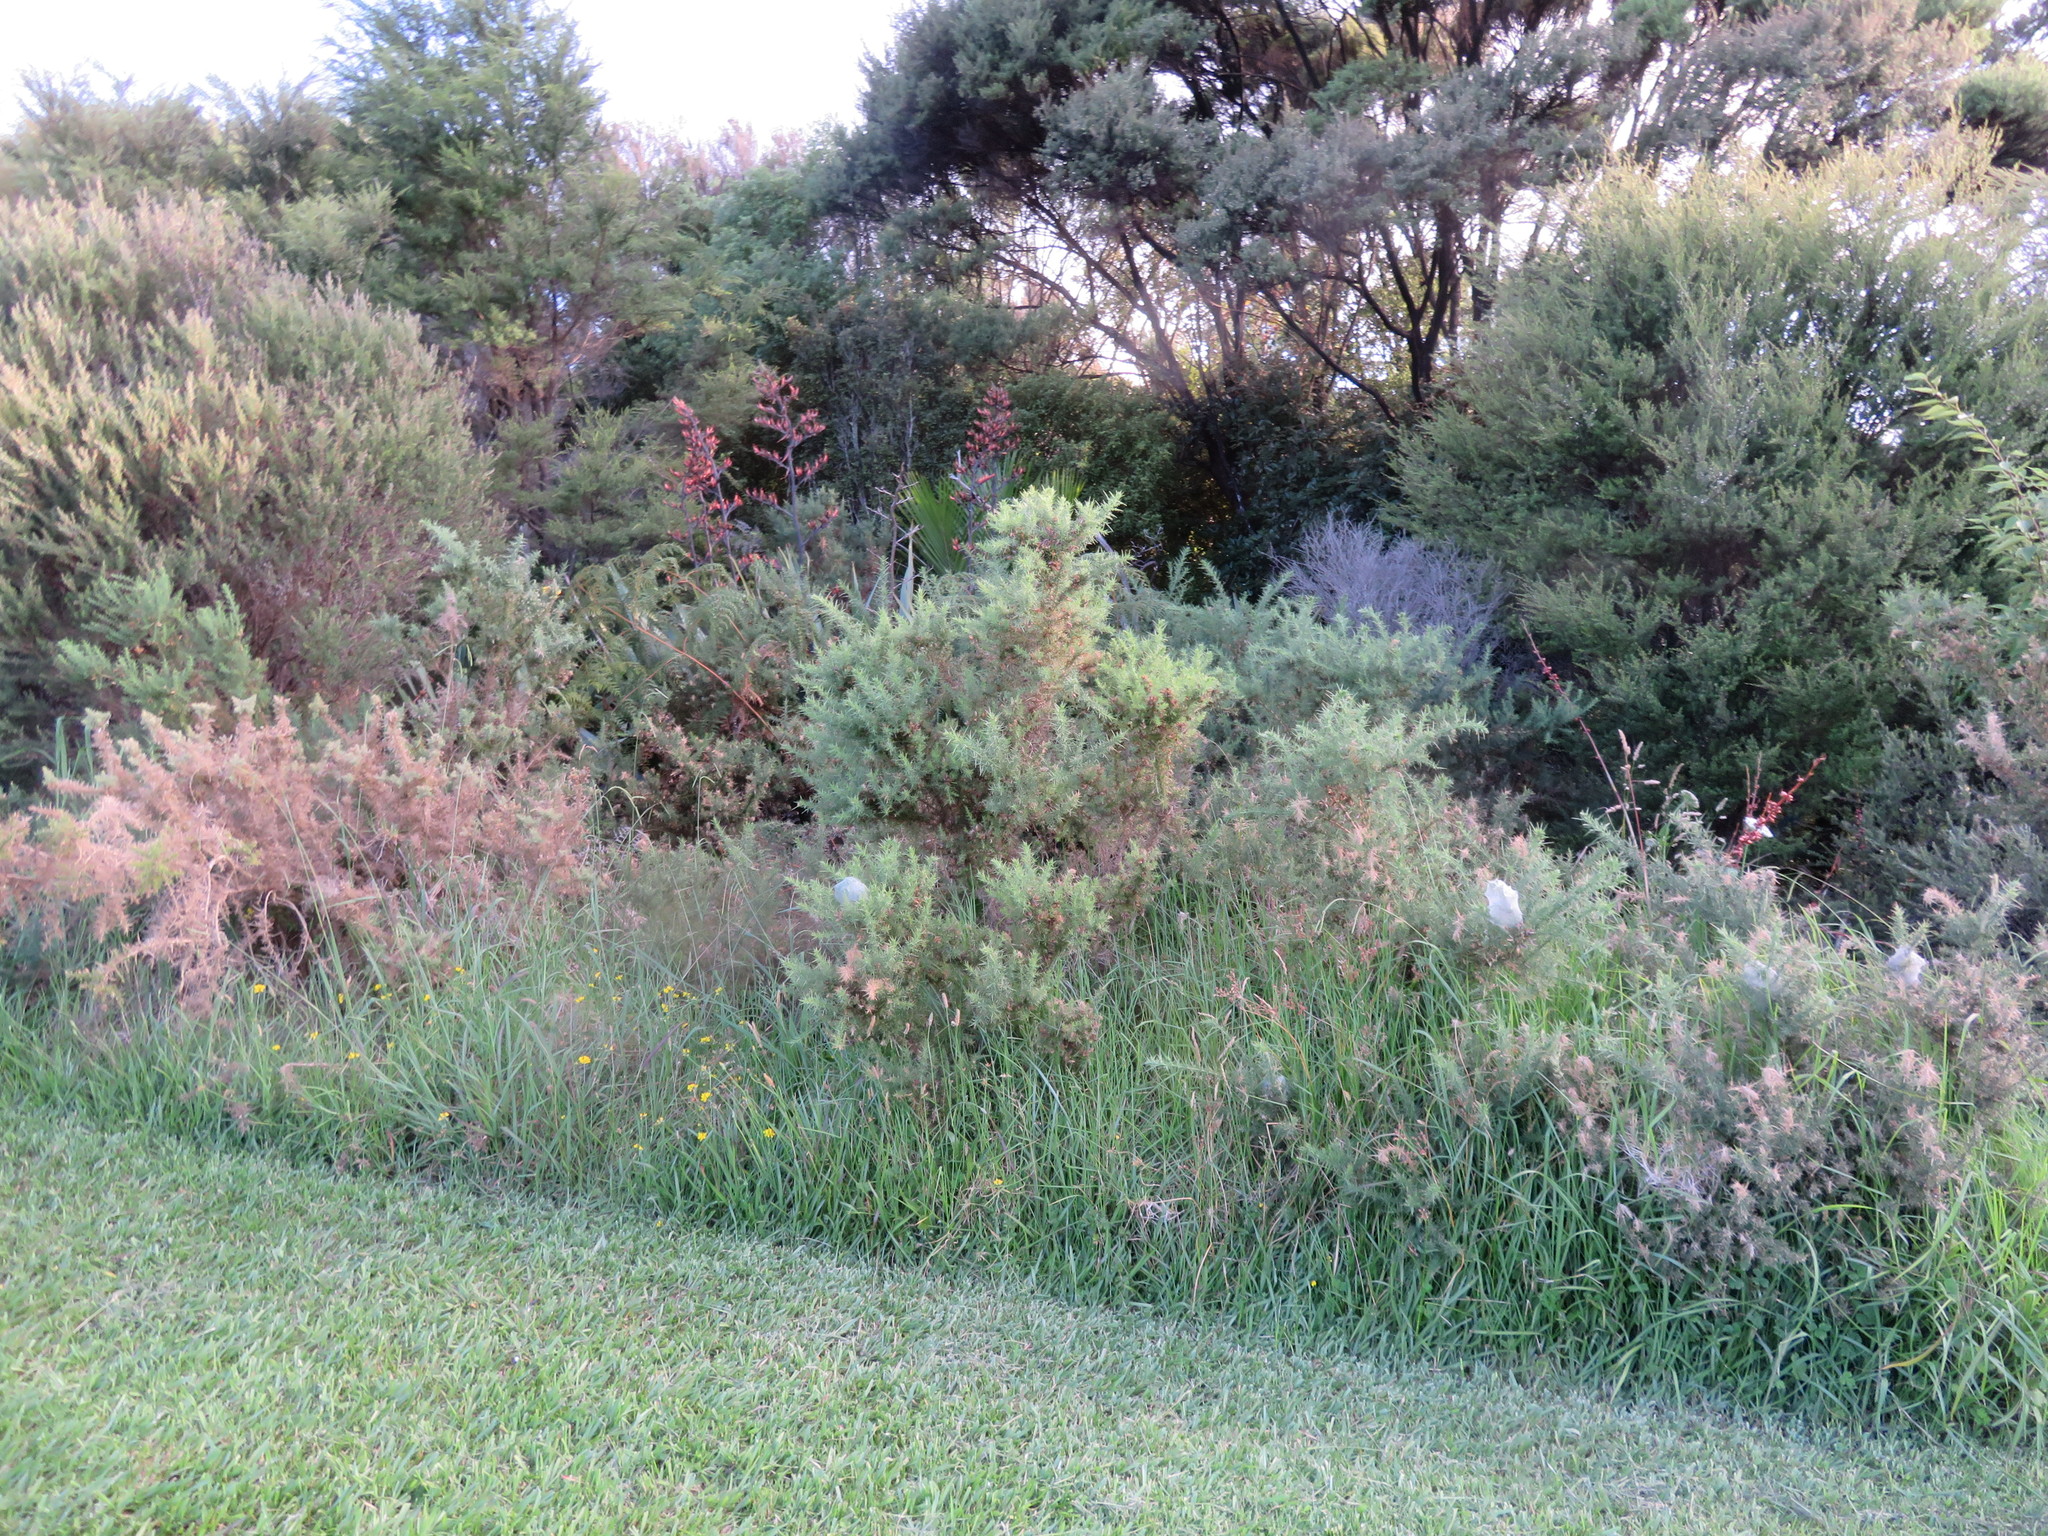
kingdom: Plantae
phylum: Tracheophyta
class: Magnoliopsida
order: Fabales
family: Fabaceae
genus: Ulex
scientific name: Ulex europaeus
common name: Common gorse
